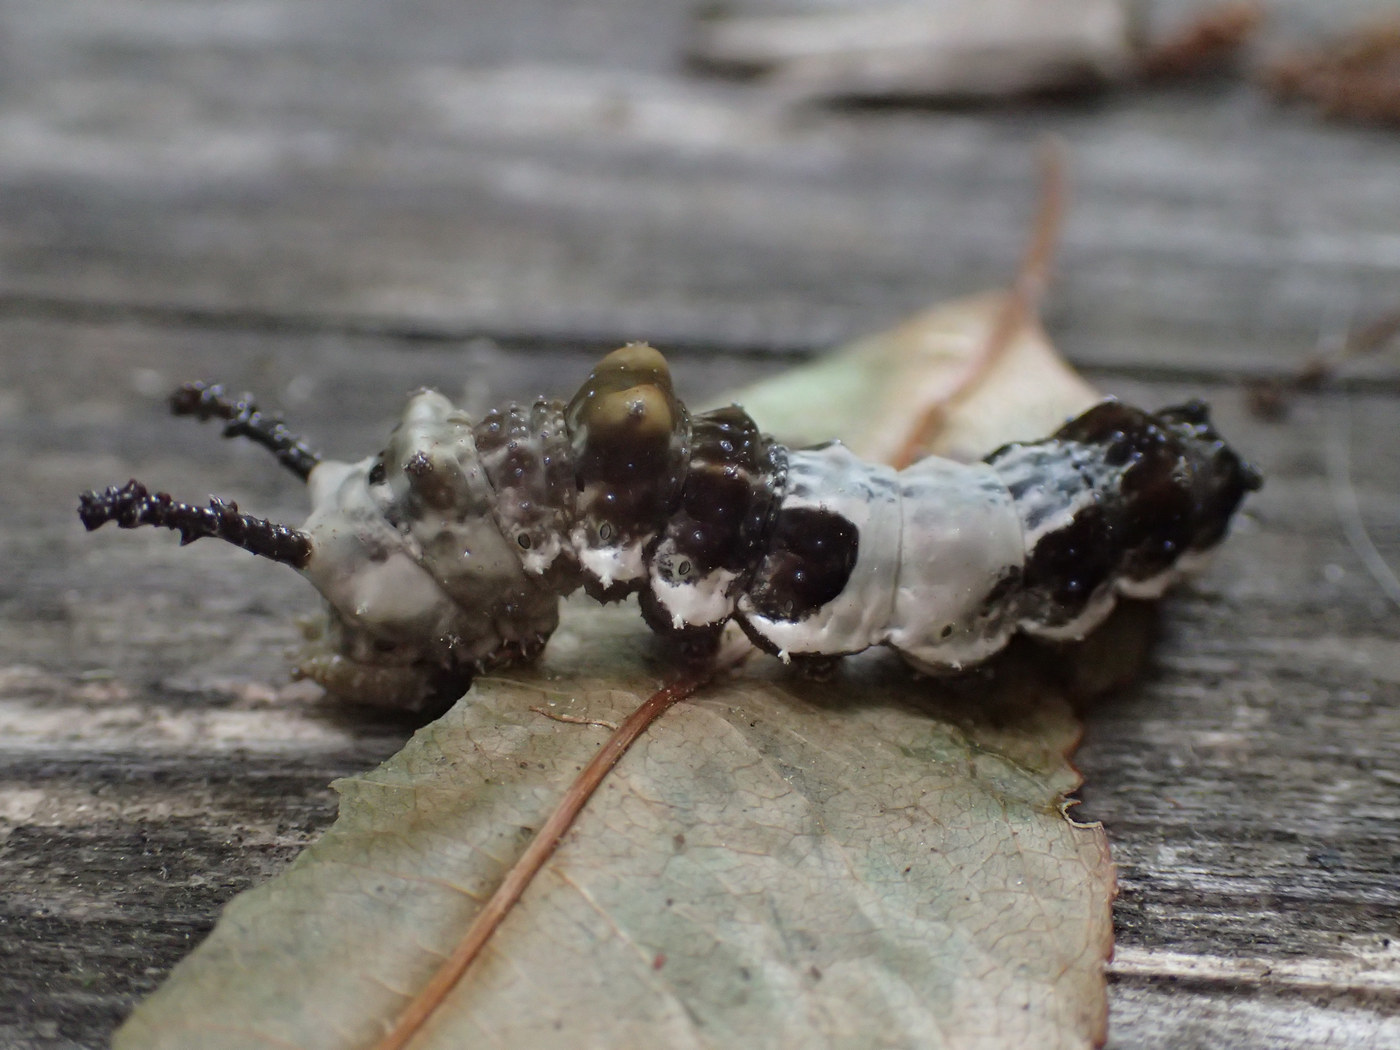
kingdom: Animalia
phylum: Arthropoda
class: Insecta
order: Lepidoptera
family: Nymphalidae
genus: Limenitis
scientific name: Limenitis archippus
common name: Viceroy
